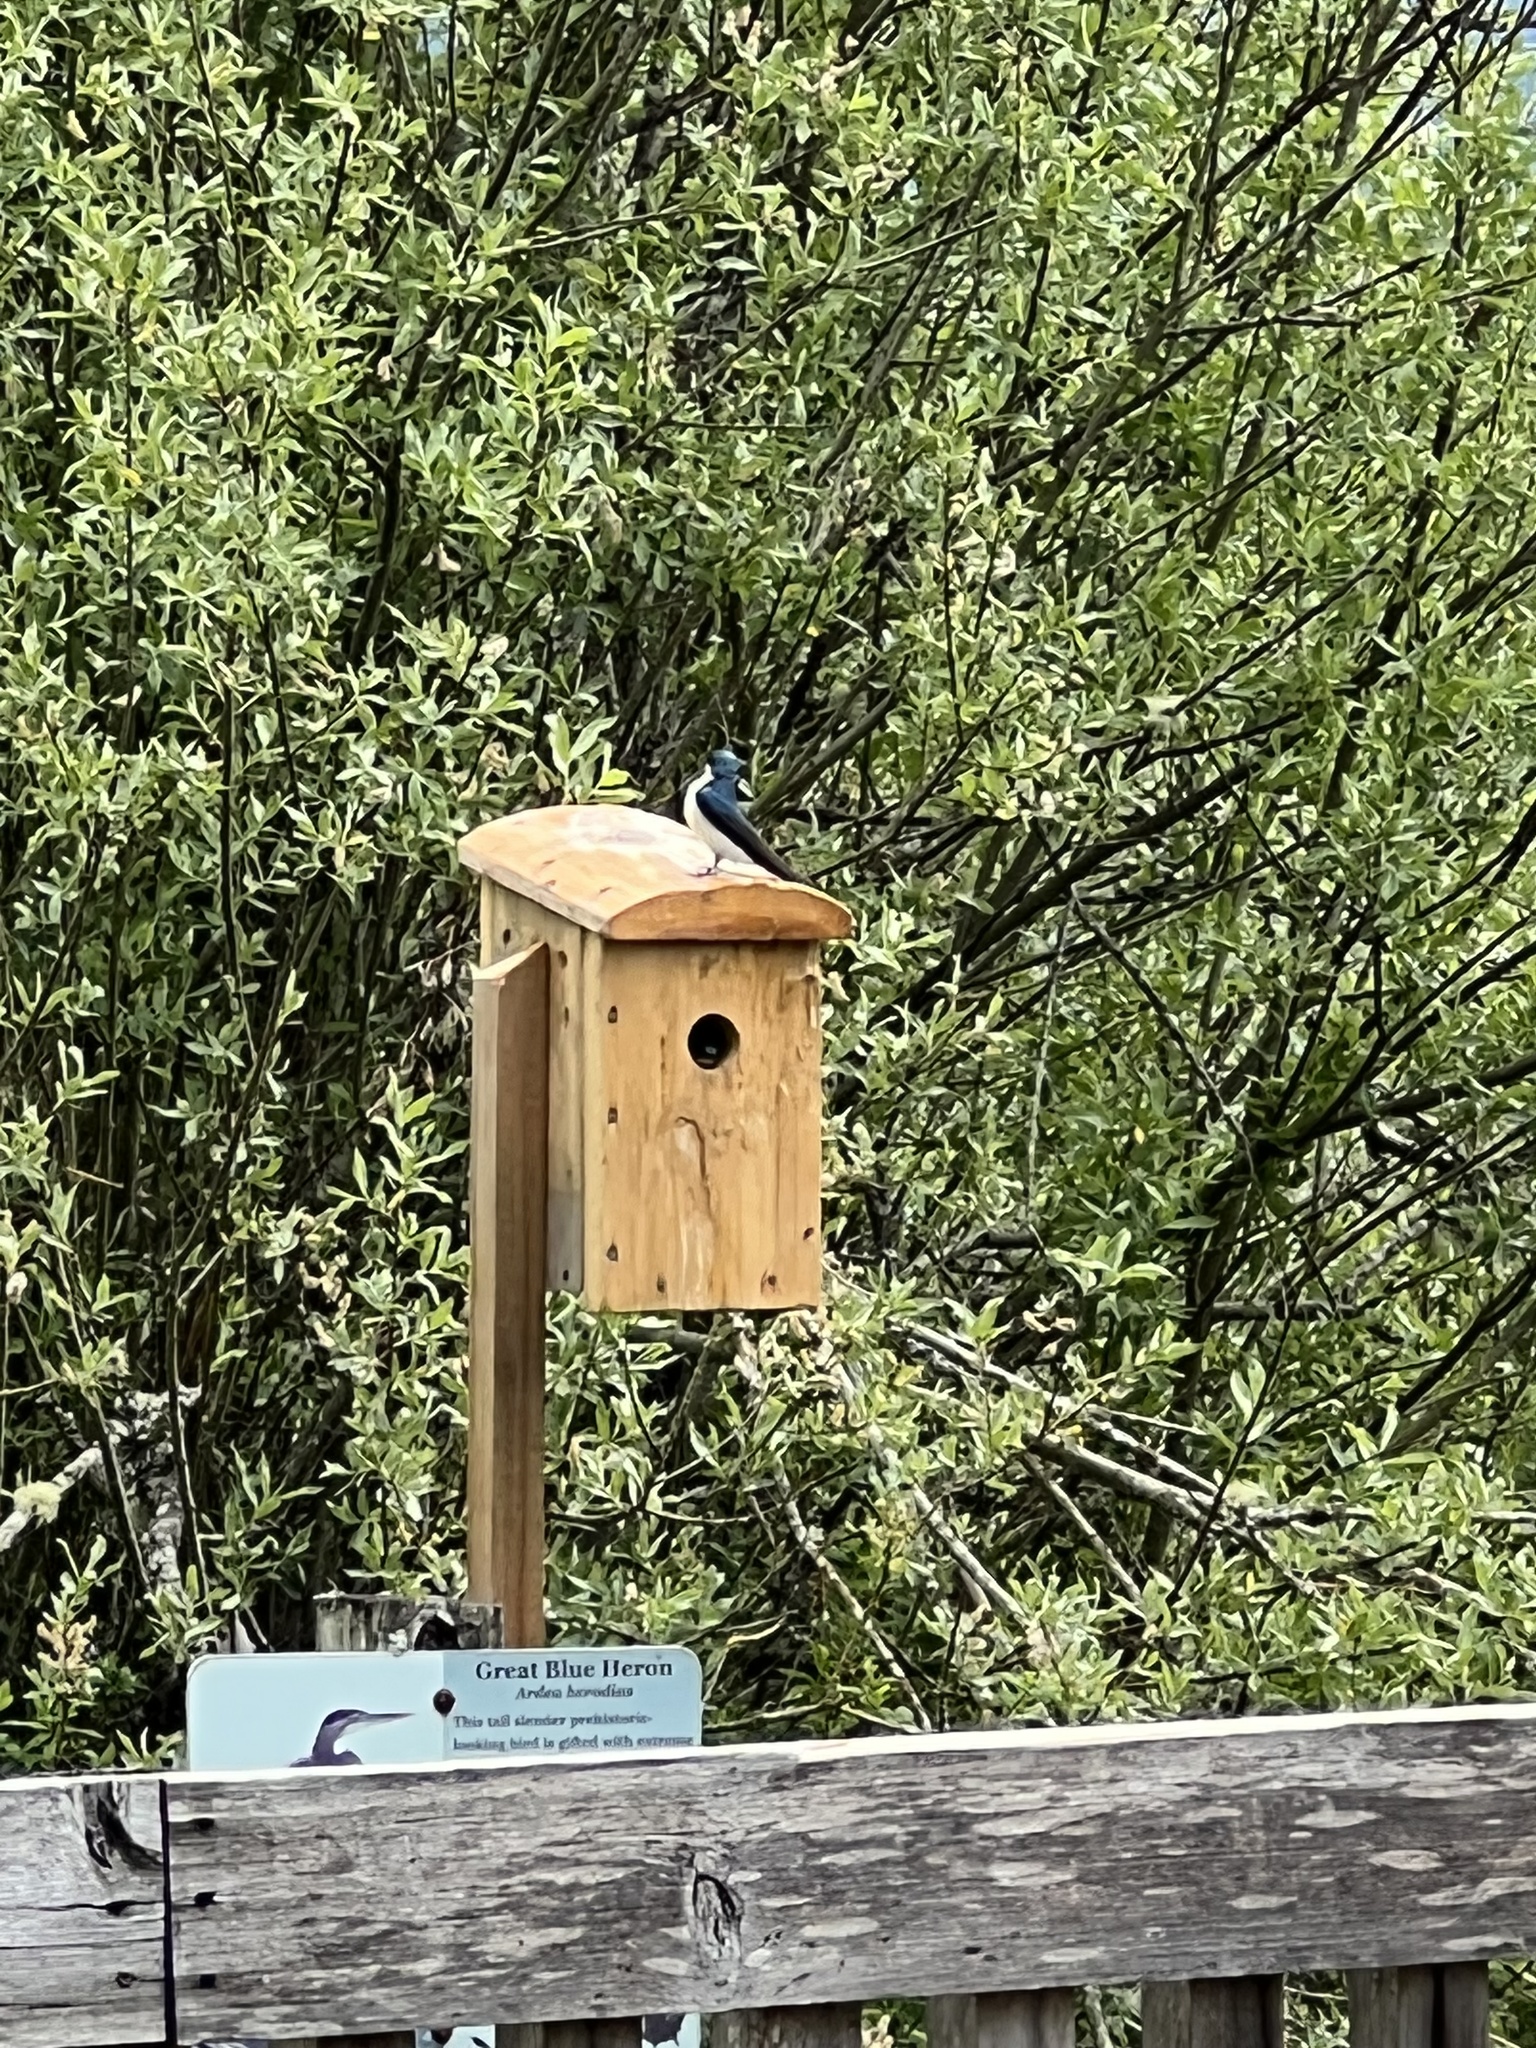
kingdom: Animalia
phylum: Chordata
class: Aves
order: Passeriformes
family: Hirundinidae
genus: Tachycineta
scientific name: Tachycineta bicolor
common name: Tree swallow
